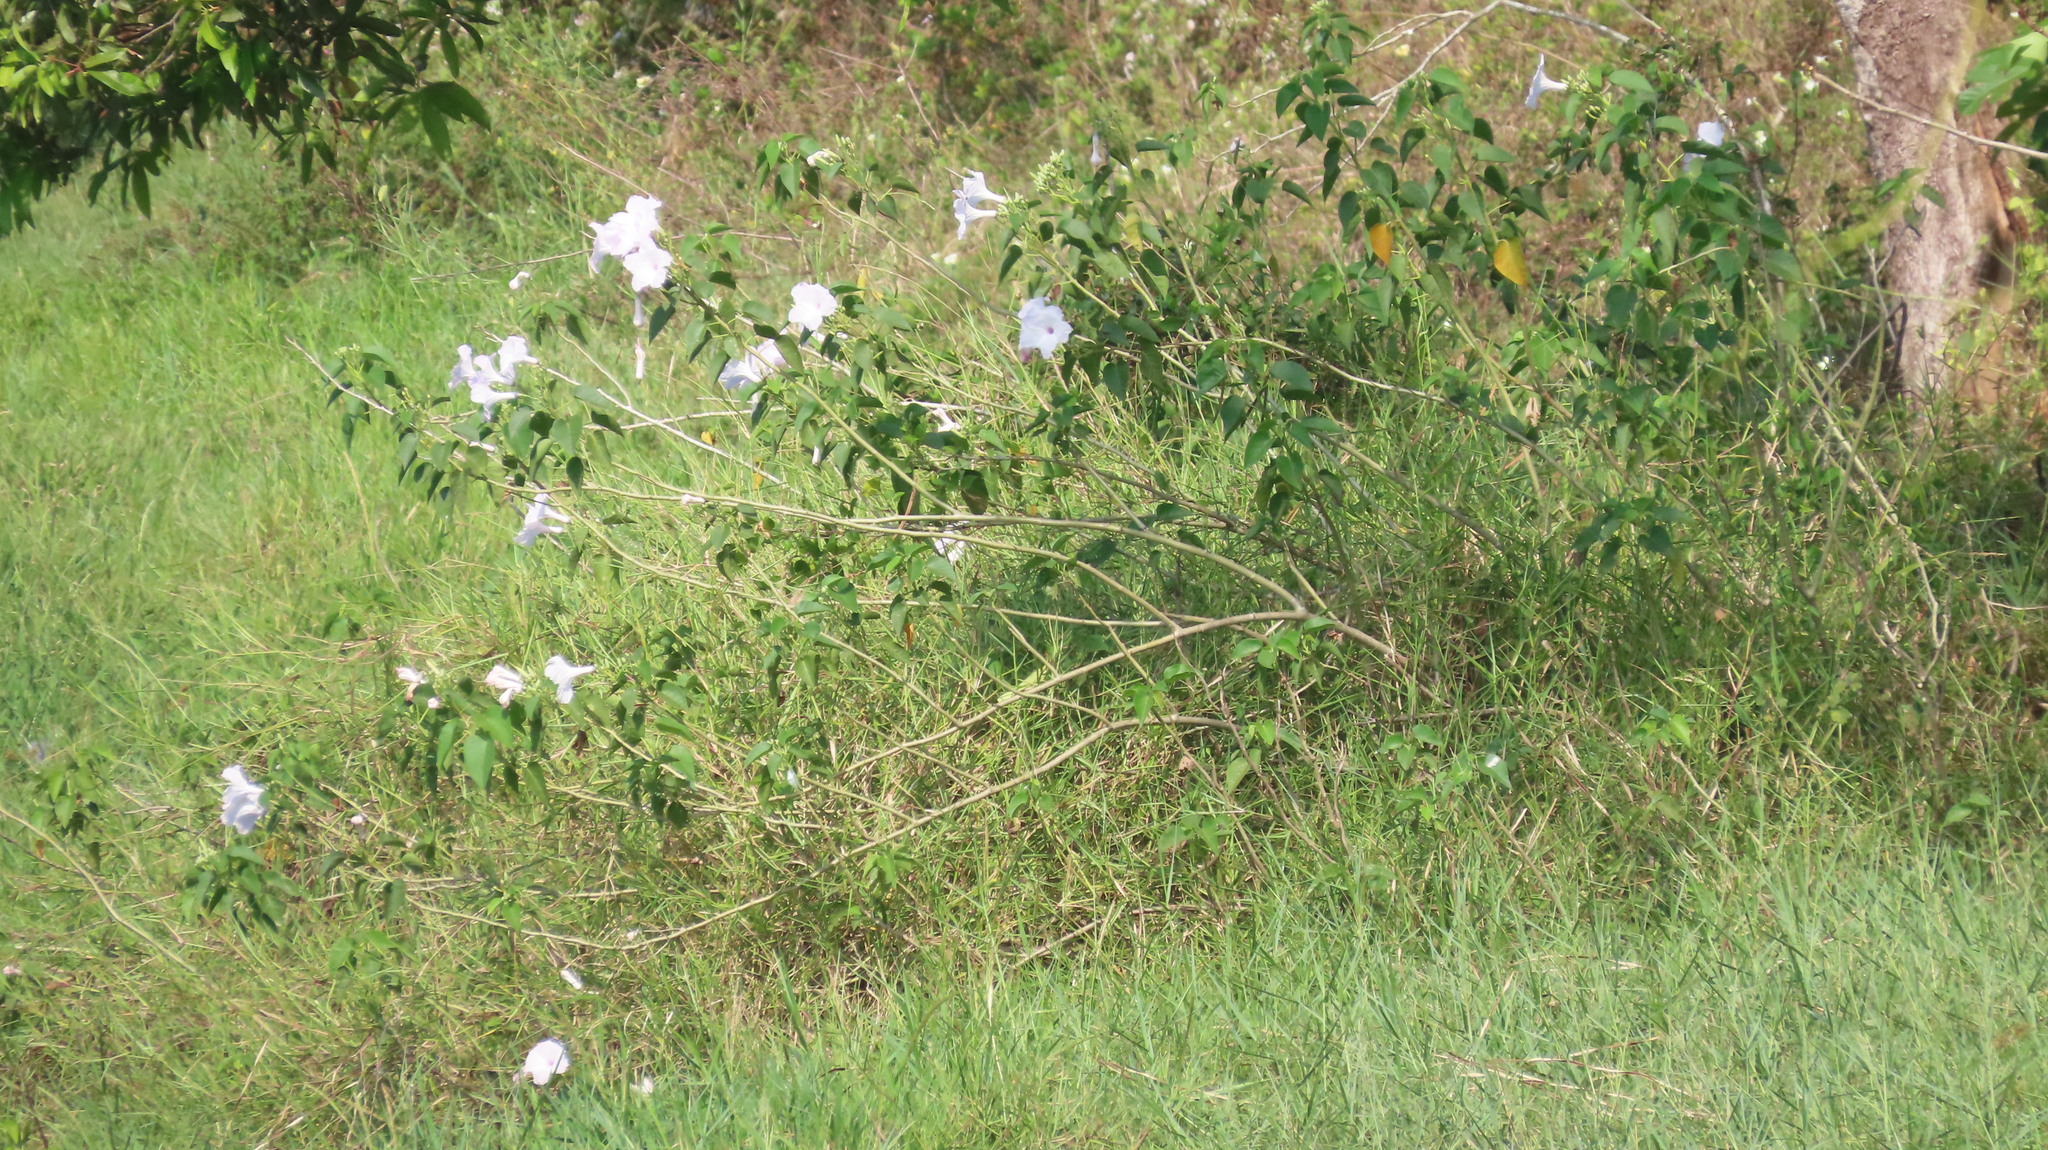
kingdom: Plantae
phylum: Tracheophyta
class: Magnoliopsida
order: Solanales
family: Convolvulaceae
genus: Ipomoea
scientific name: Ipomoea carnea
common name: Morning-glory
